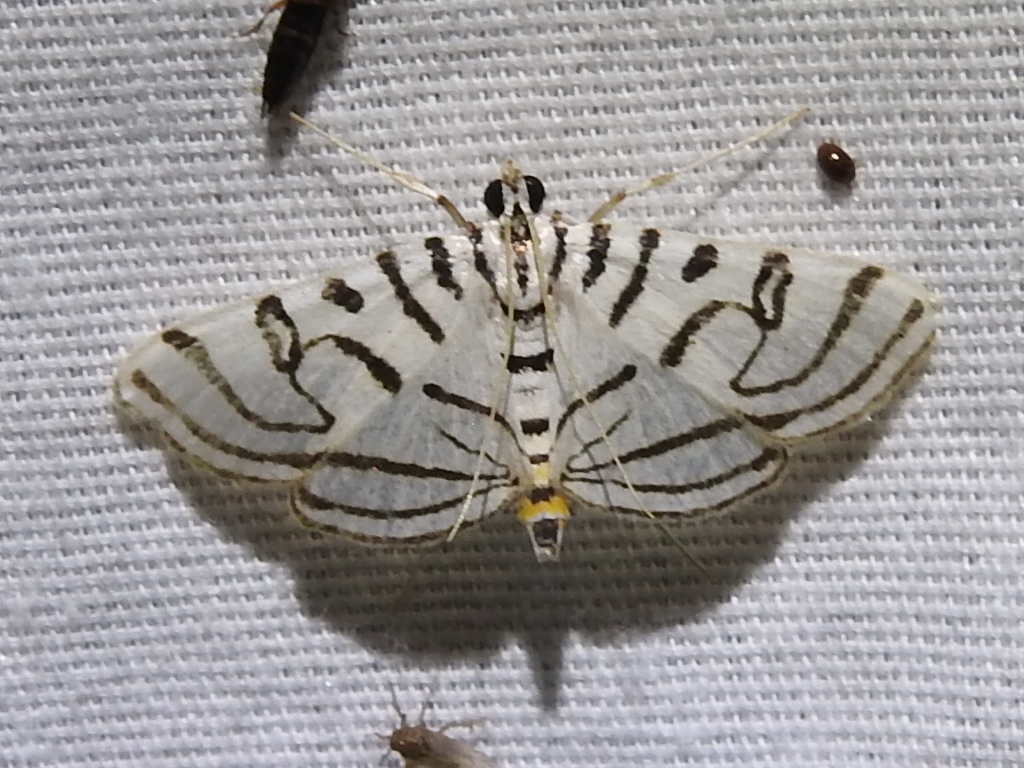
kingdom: Animalia
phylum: Arthropoda
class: Insecta
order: Lepidoptera
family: Crambidae
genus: Conchylodes
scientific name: Conchylodes ovulalis
